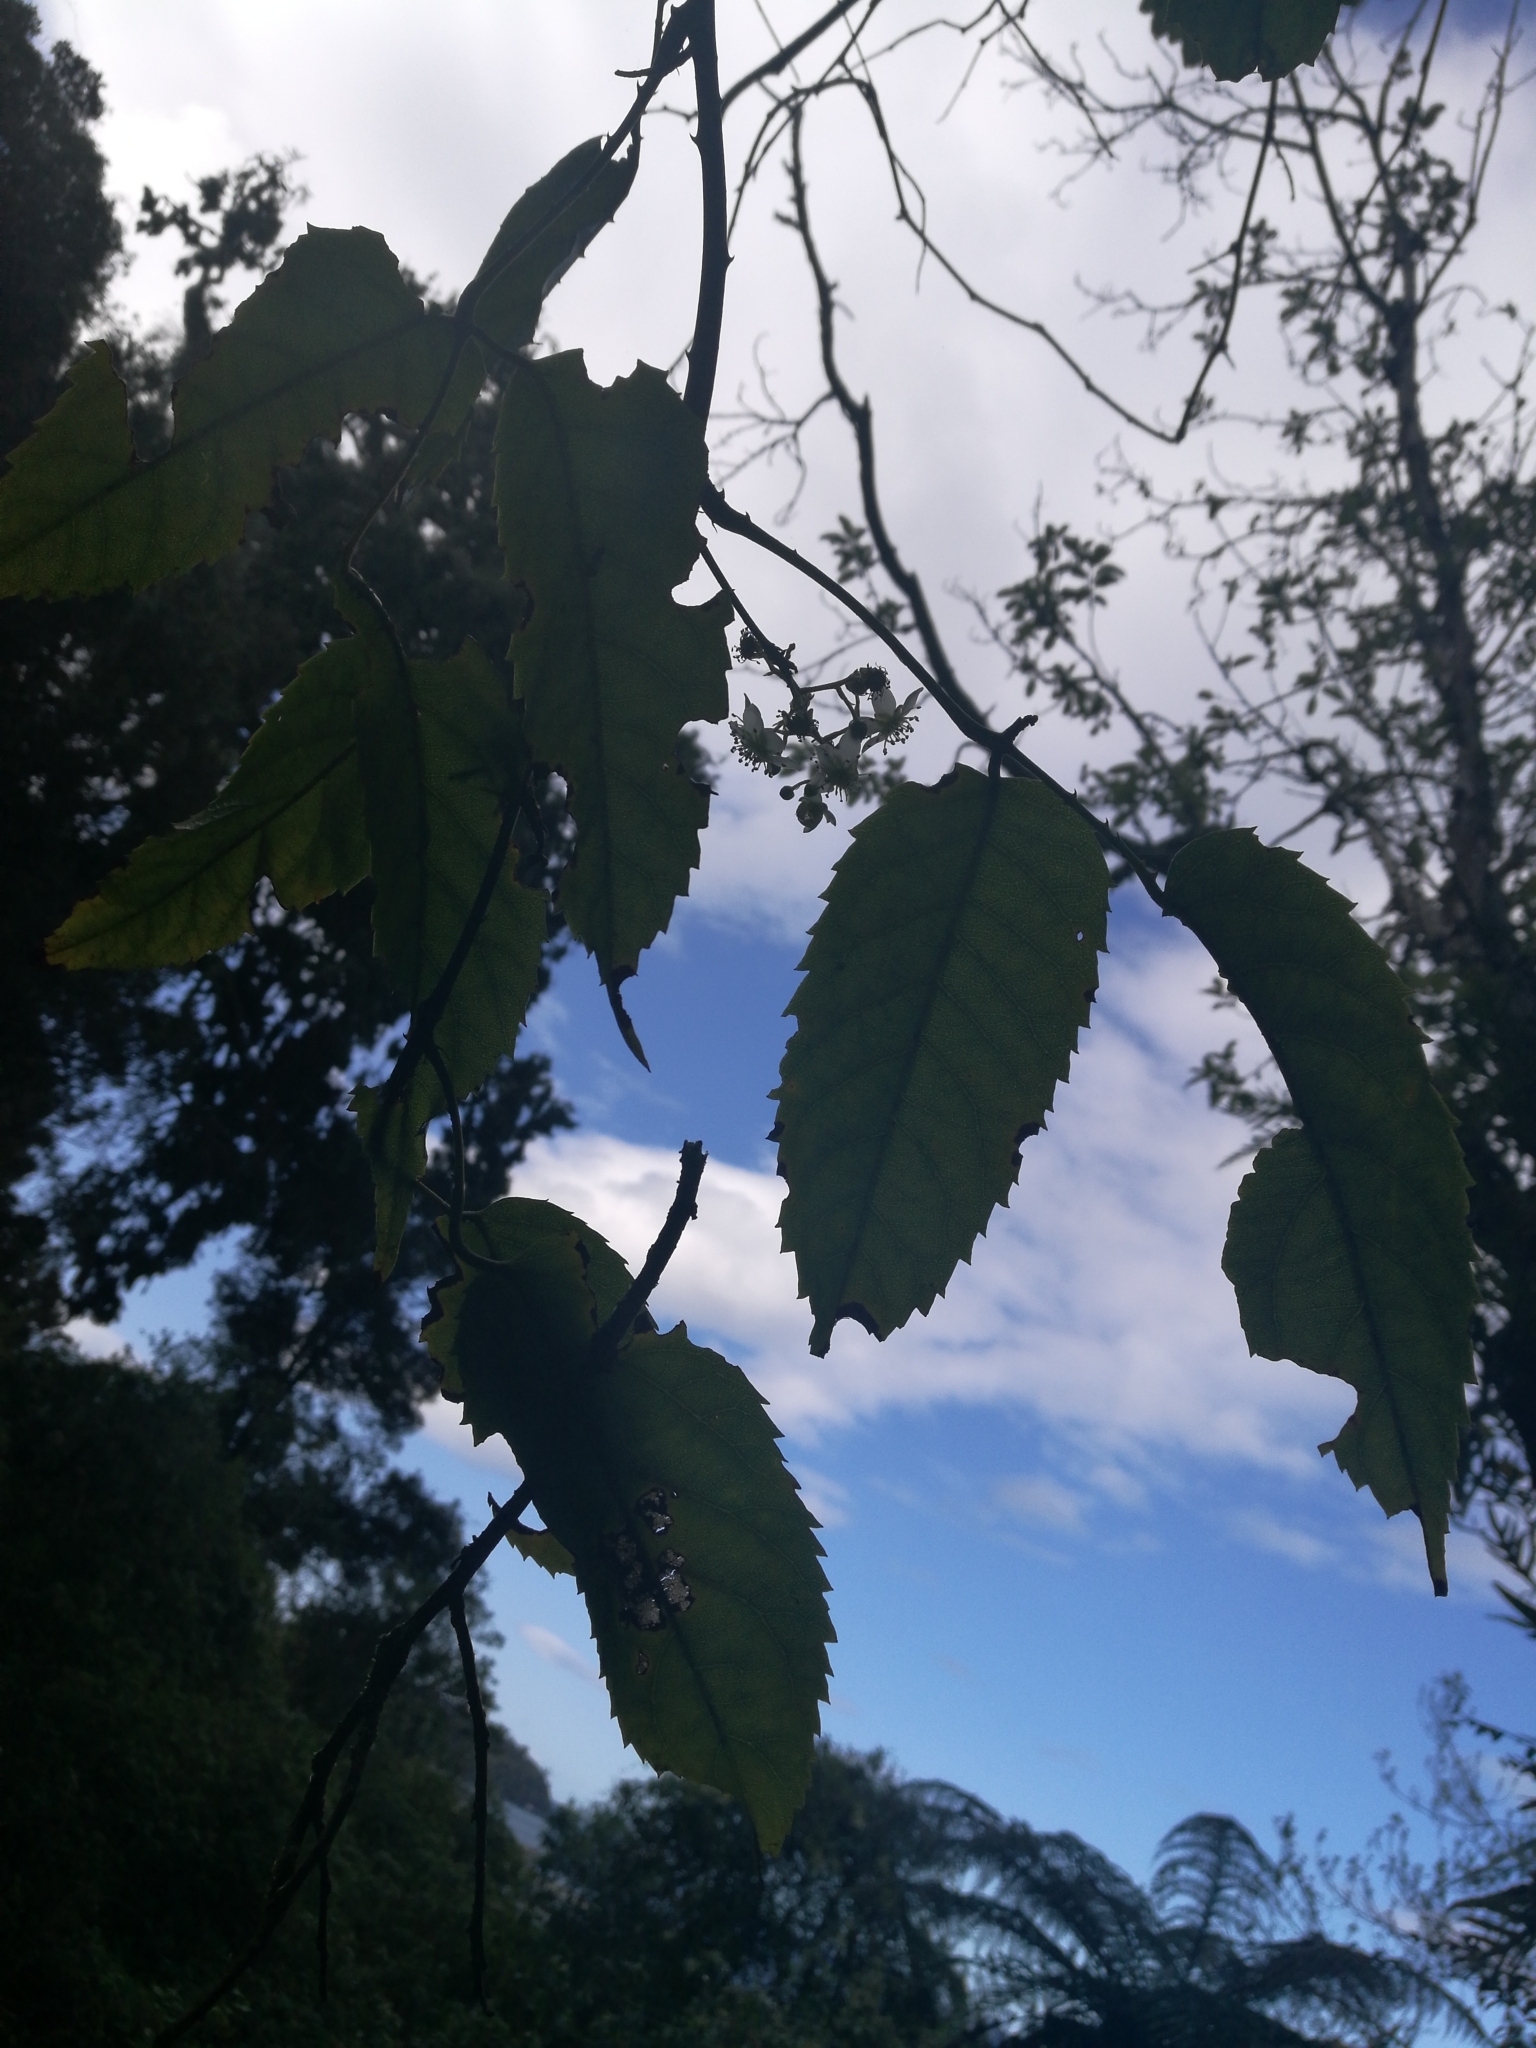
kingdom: Plantae
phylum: Tracheophyta
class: Magnoliopsida
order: Rosales
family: Rosaceae
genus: Rubus
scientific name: Rubus cissoides
